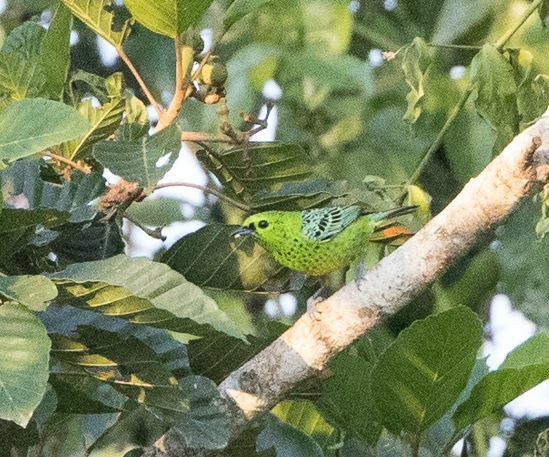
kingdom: Animalia
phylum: Chordata
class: Aves
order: Passeriformes
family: Thraupidae
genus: Ixothraupis
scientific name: Ixothraupis xanthogastra
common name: Yellow-bellied tanager
